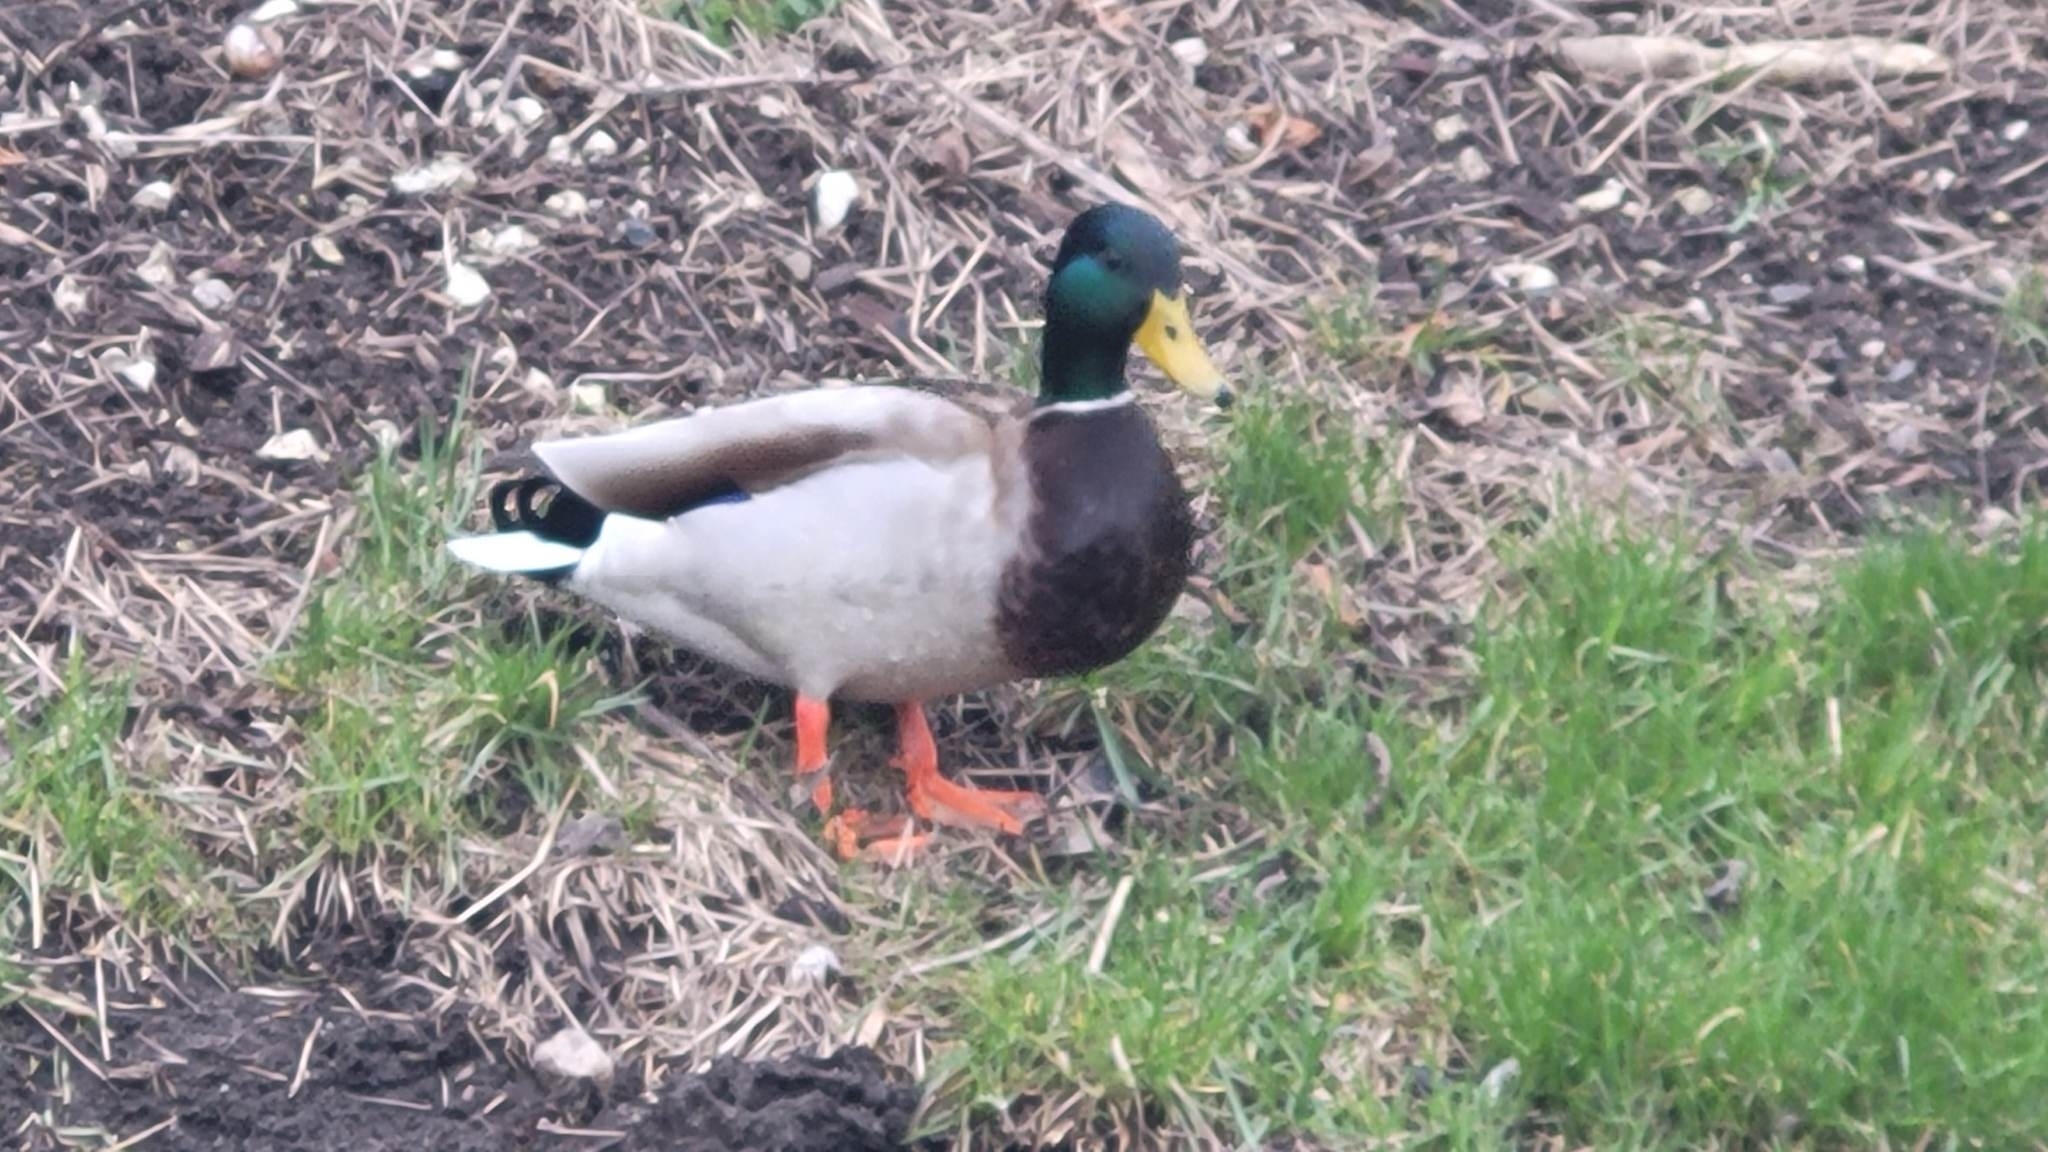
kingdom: Animalia
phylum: Chordata
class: Aves
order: Anseriformes
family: Anatidae
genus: Anas
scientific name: Anas platyrhynchos
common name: Mallard
